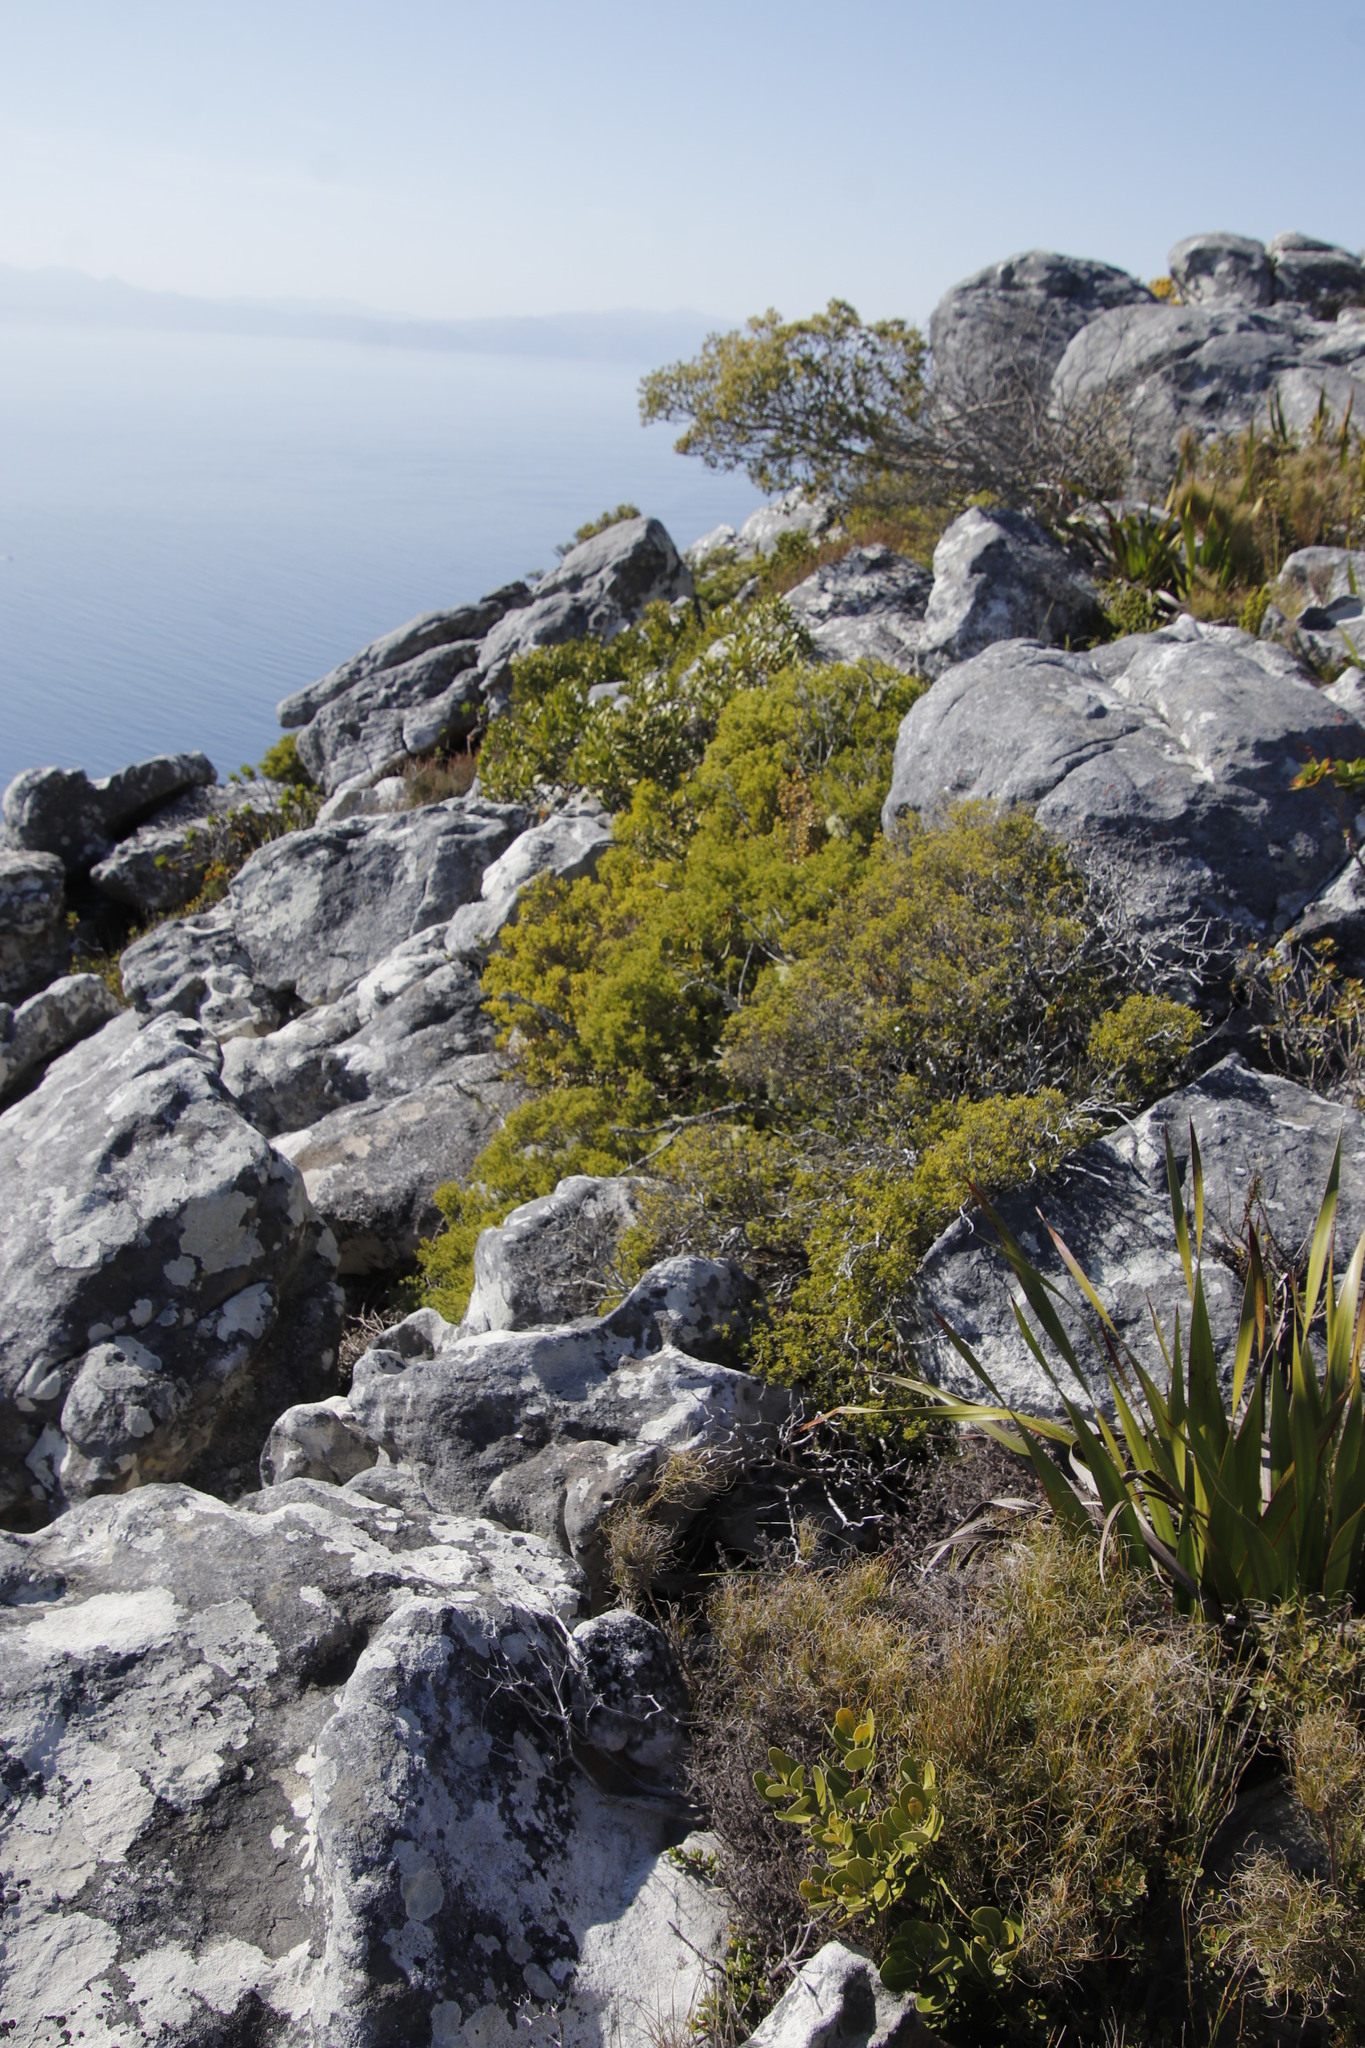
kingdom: Plantae
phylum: Tracheophyta
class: Magnoliopsida
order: Sapindales
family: Rutaceae
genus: Coleonema
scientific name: Coleonema album
